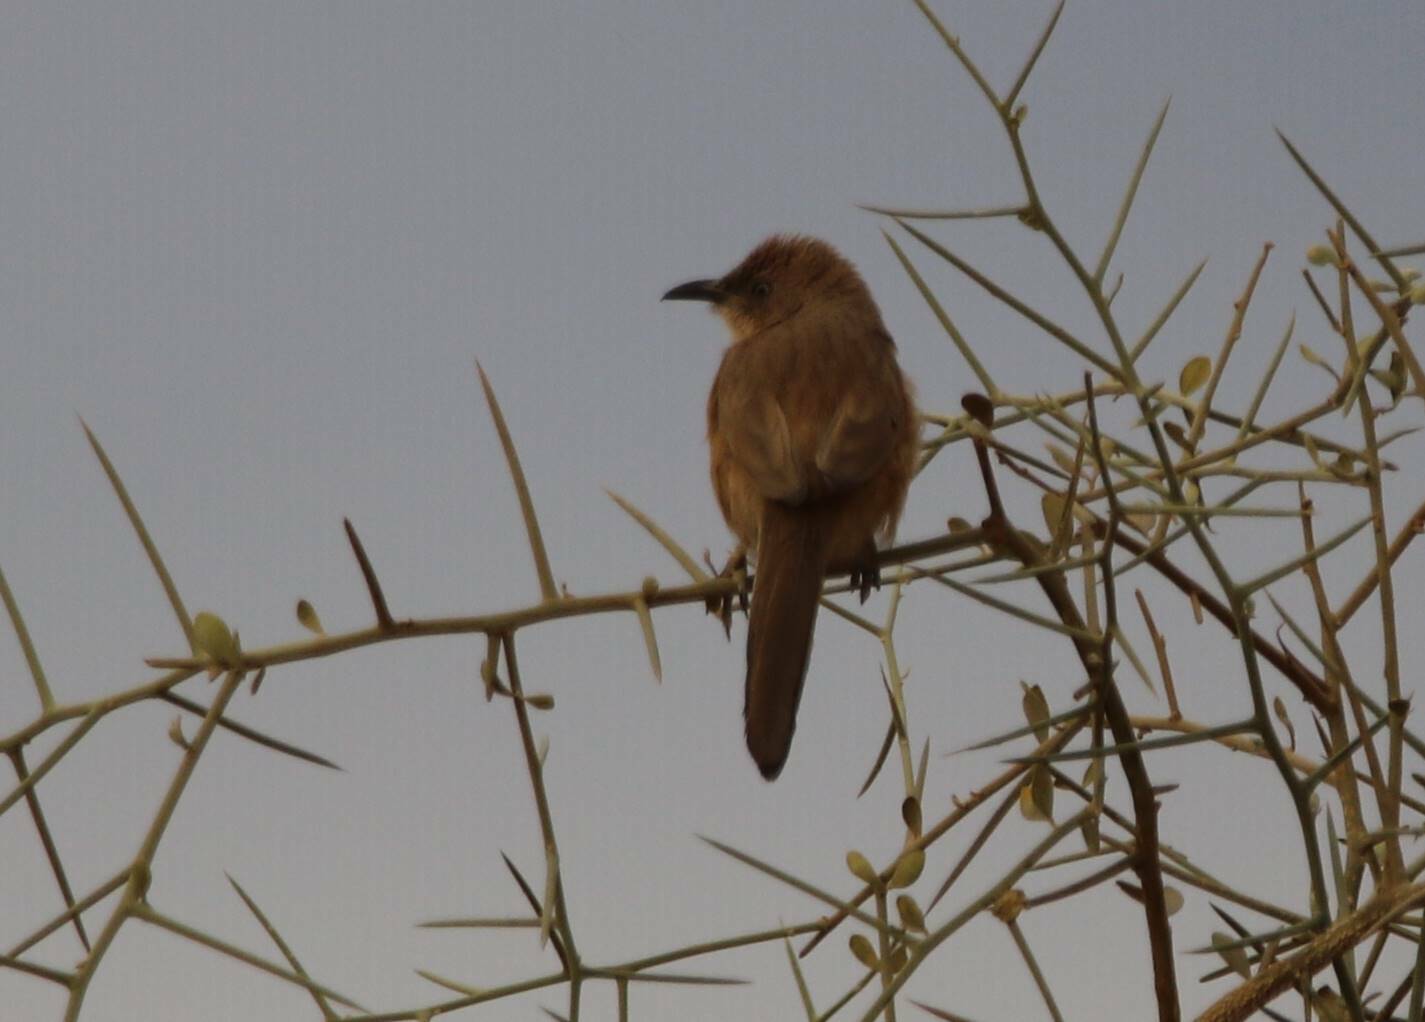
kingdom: Animalia
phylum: Chordata
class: Aves
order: Passeriformes
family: Leiothrichidae
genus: Turdoides
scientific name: Turdoides fulva
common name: Fulvous babbler
